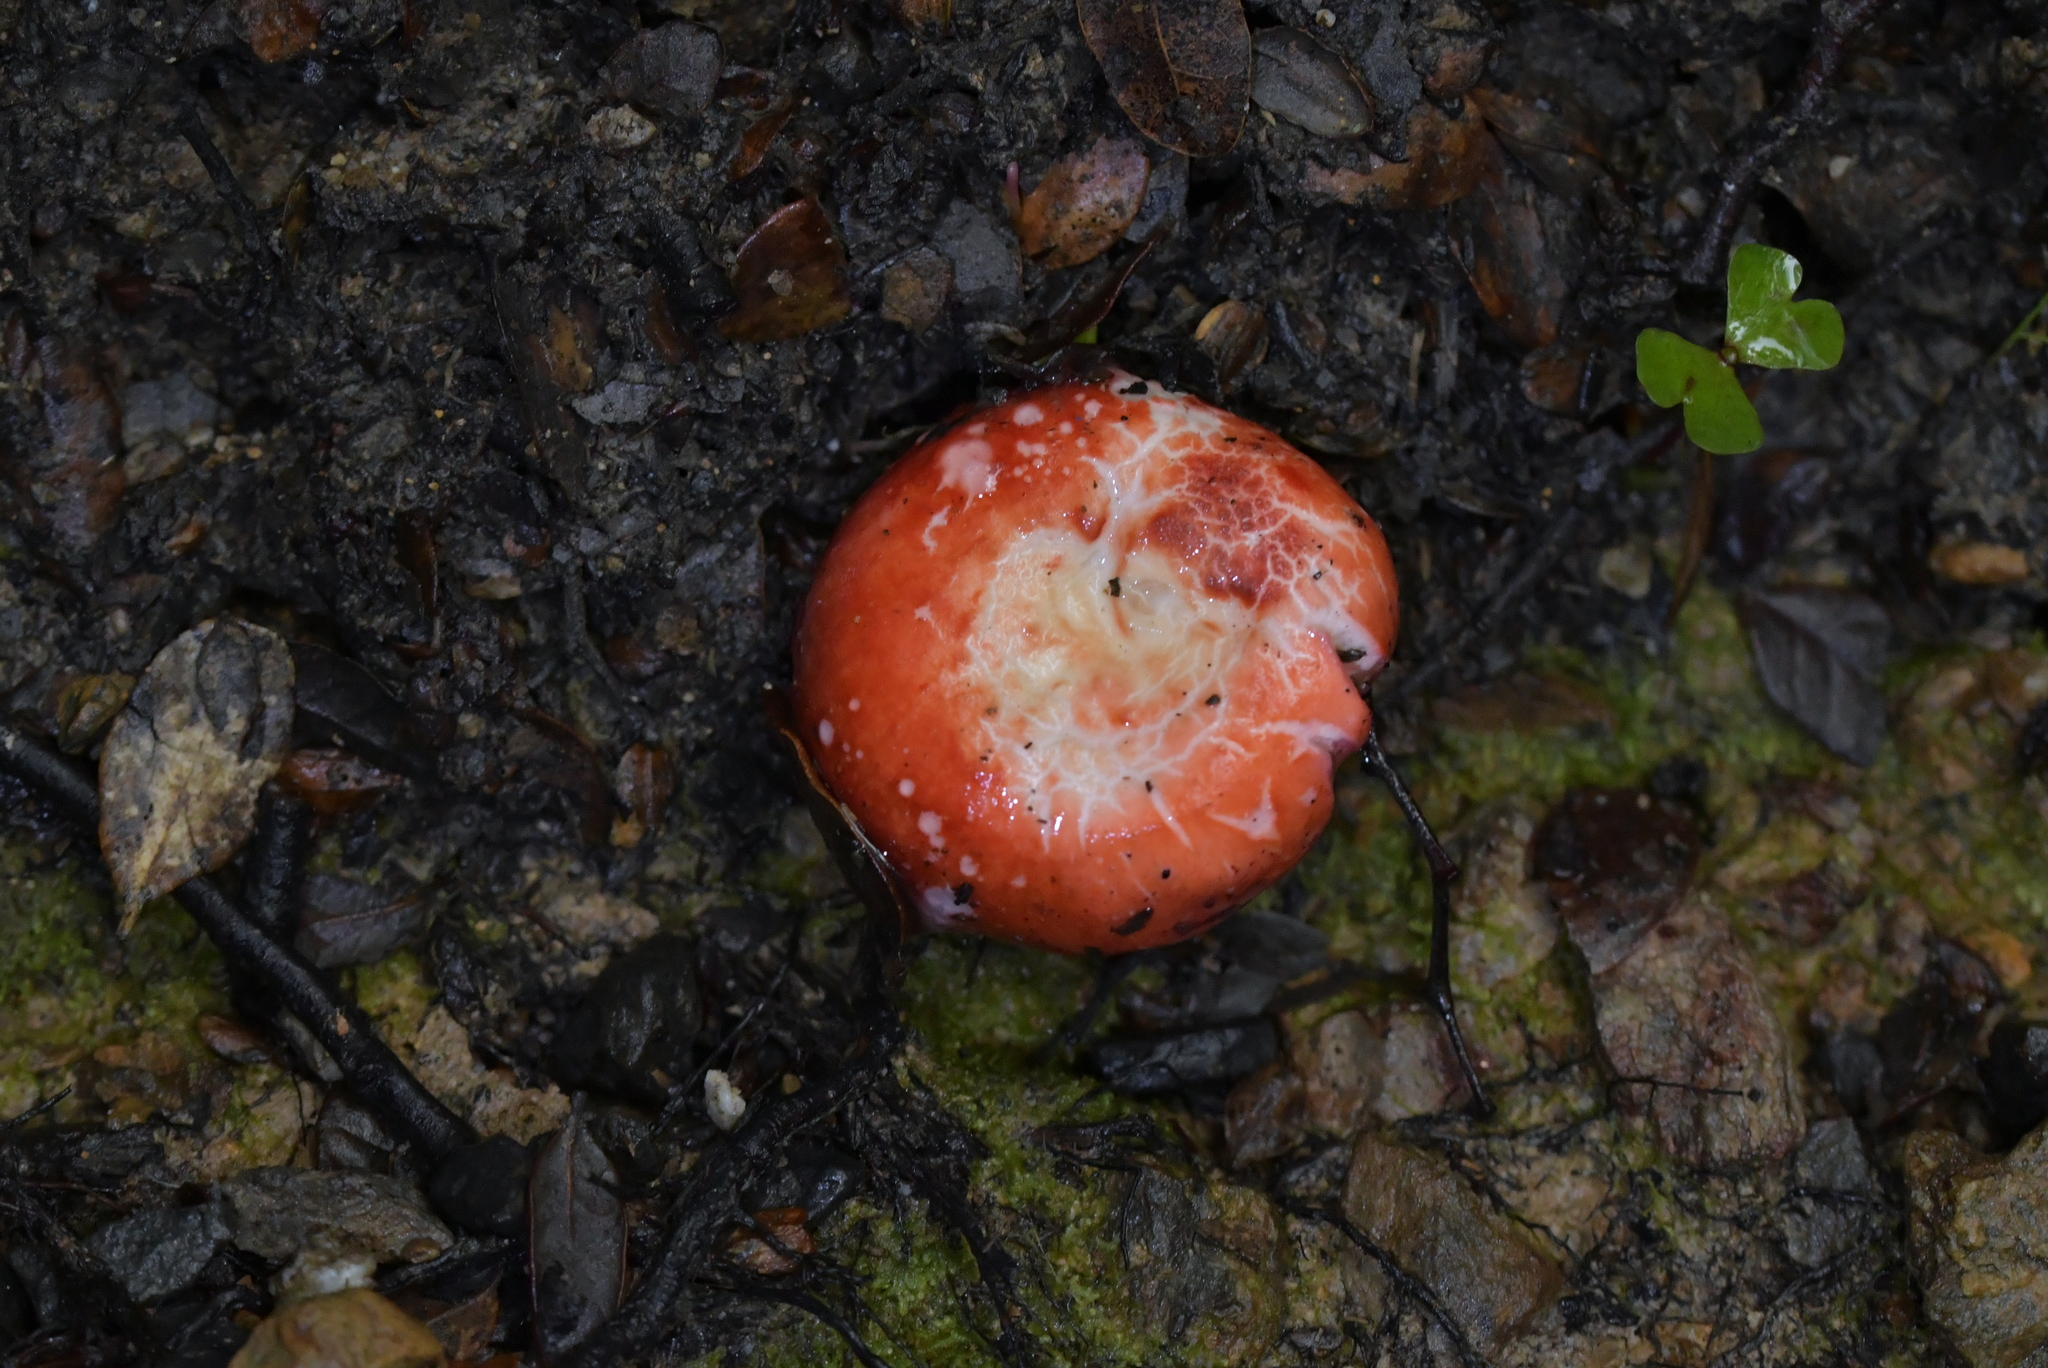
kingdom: Fungi
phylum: Basidiomycota
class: Agaricomycetes
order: Russulales
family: Russulaceae
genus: Russula
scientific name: Russula kermesina
